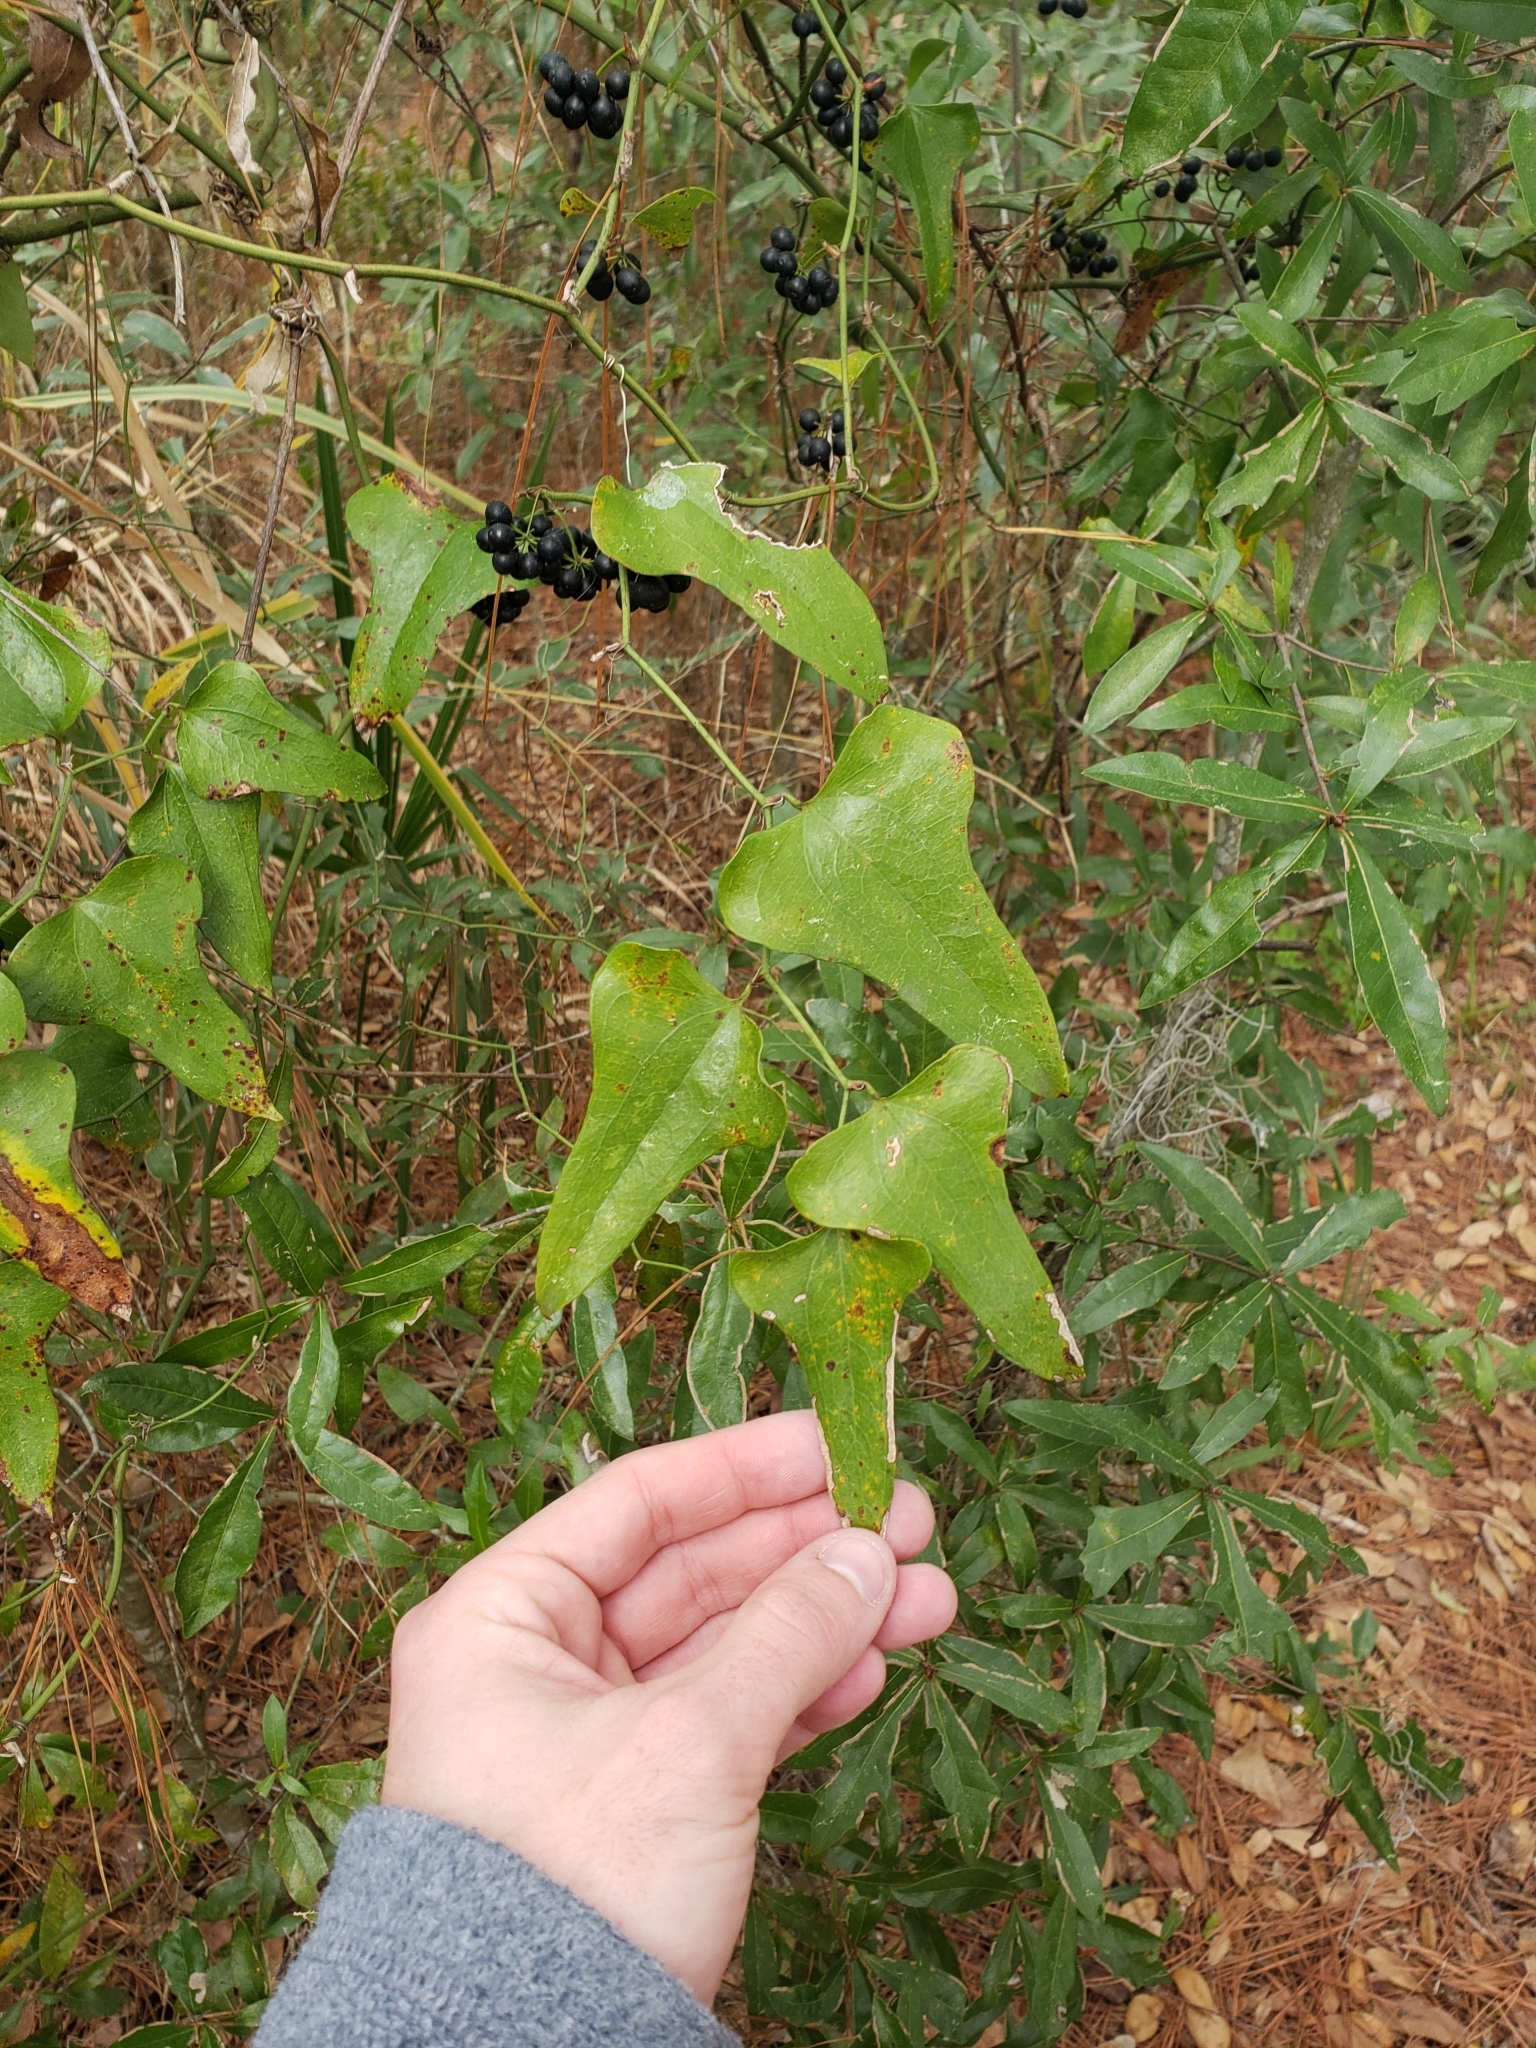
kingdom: Plantae
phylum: Tracheophyta
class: Liliopsida
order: Liliales
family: Smilacaceae
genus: Smilax
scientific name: Smilax auriculata
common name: Wild bamboo
